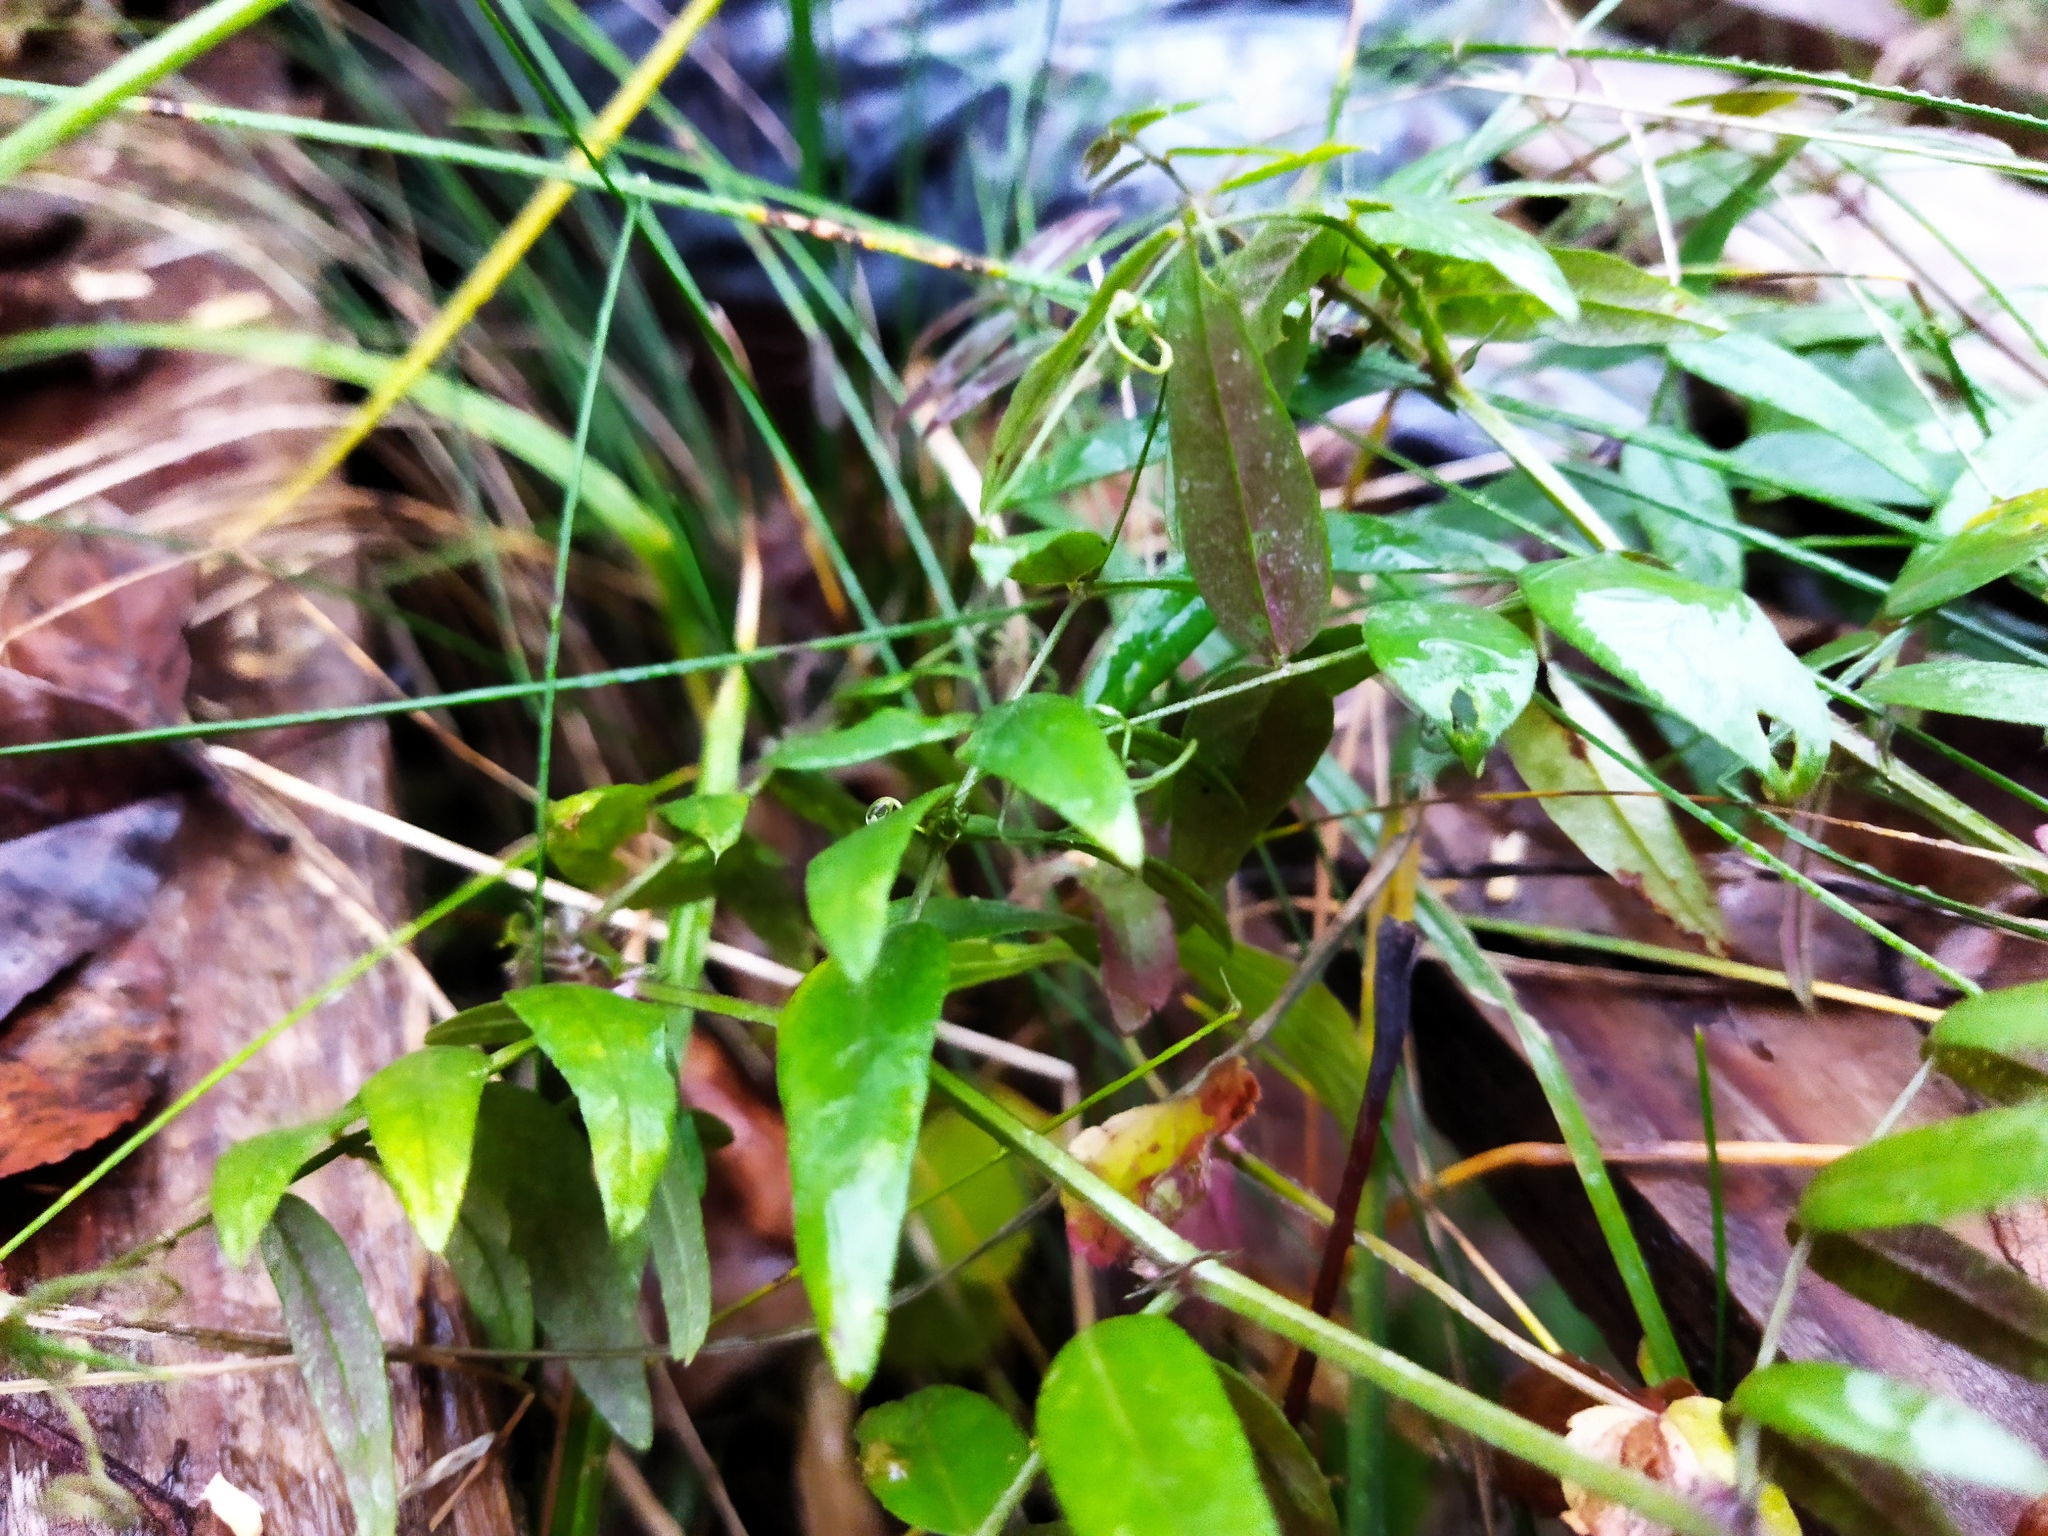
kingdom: Plantae
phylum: Tracheophyta
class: Magnoliopsida
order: Fabales
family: Fabaceae
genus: Vicia
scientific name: Vicia sepium
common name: Bush vetch
